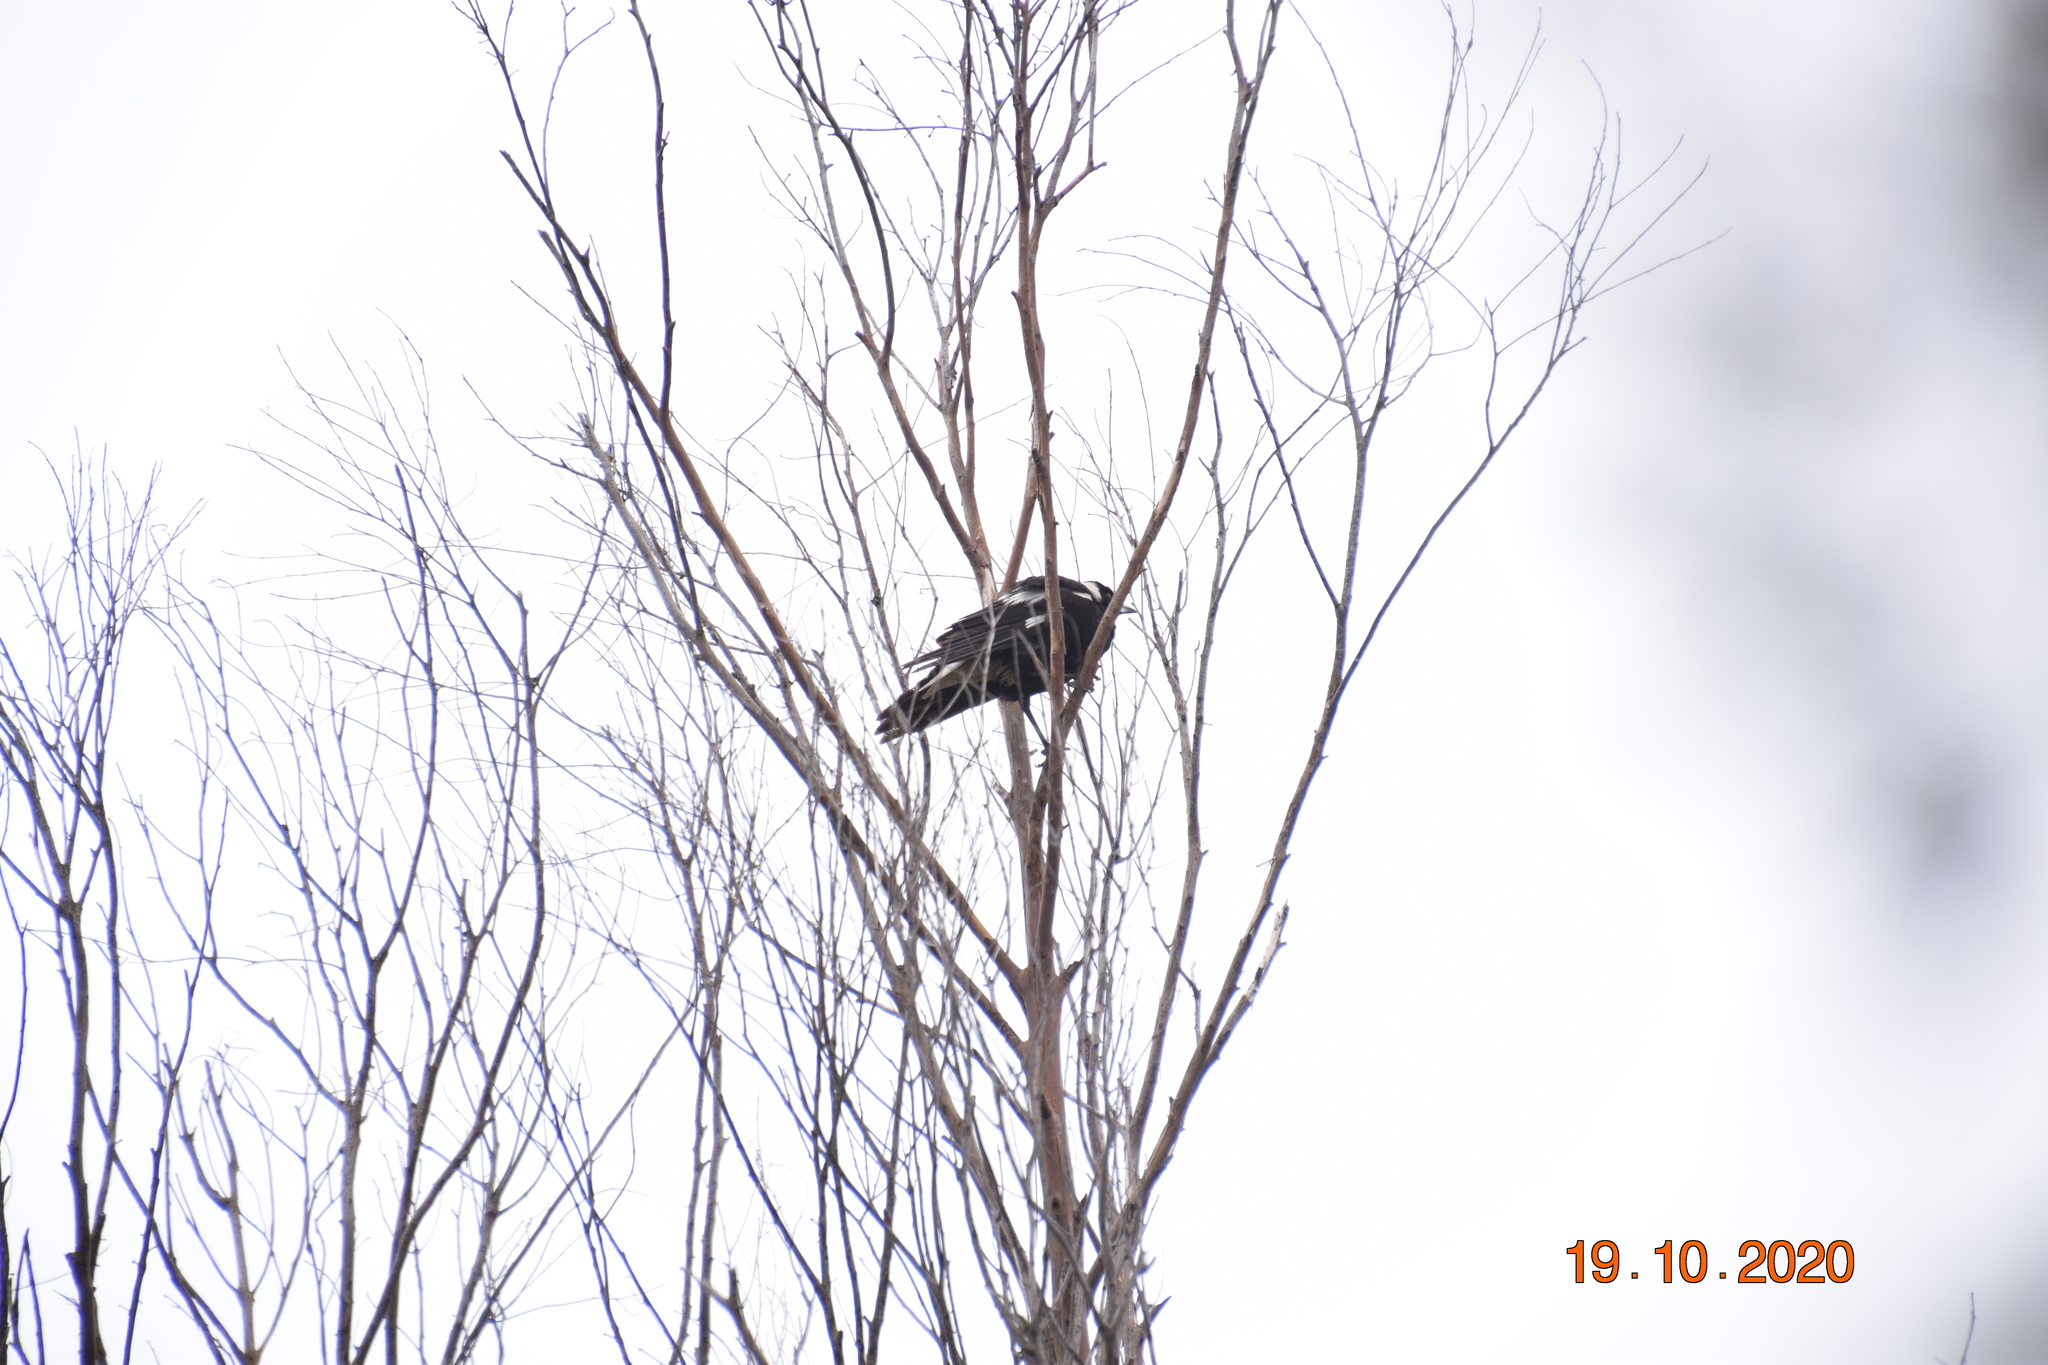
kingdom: Animalia
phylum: Chordata
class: Aves
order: Passeriformes
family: Cracticidae
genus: Gymnorhina
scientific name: Gymnorhina tibicen
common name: Australian magpie
